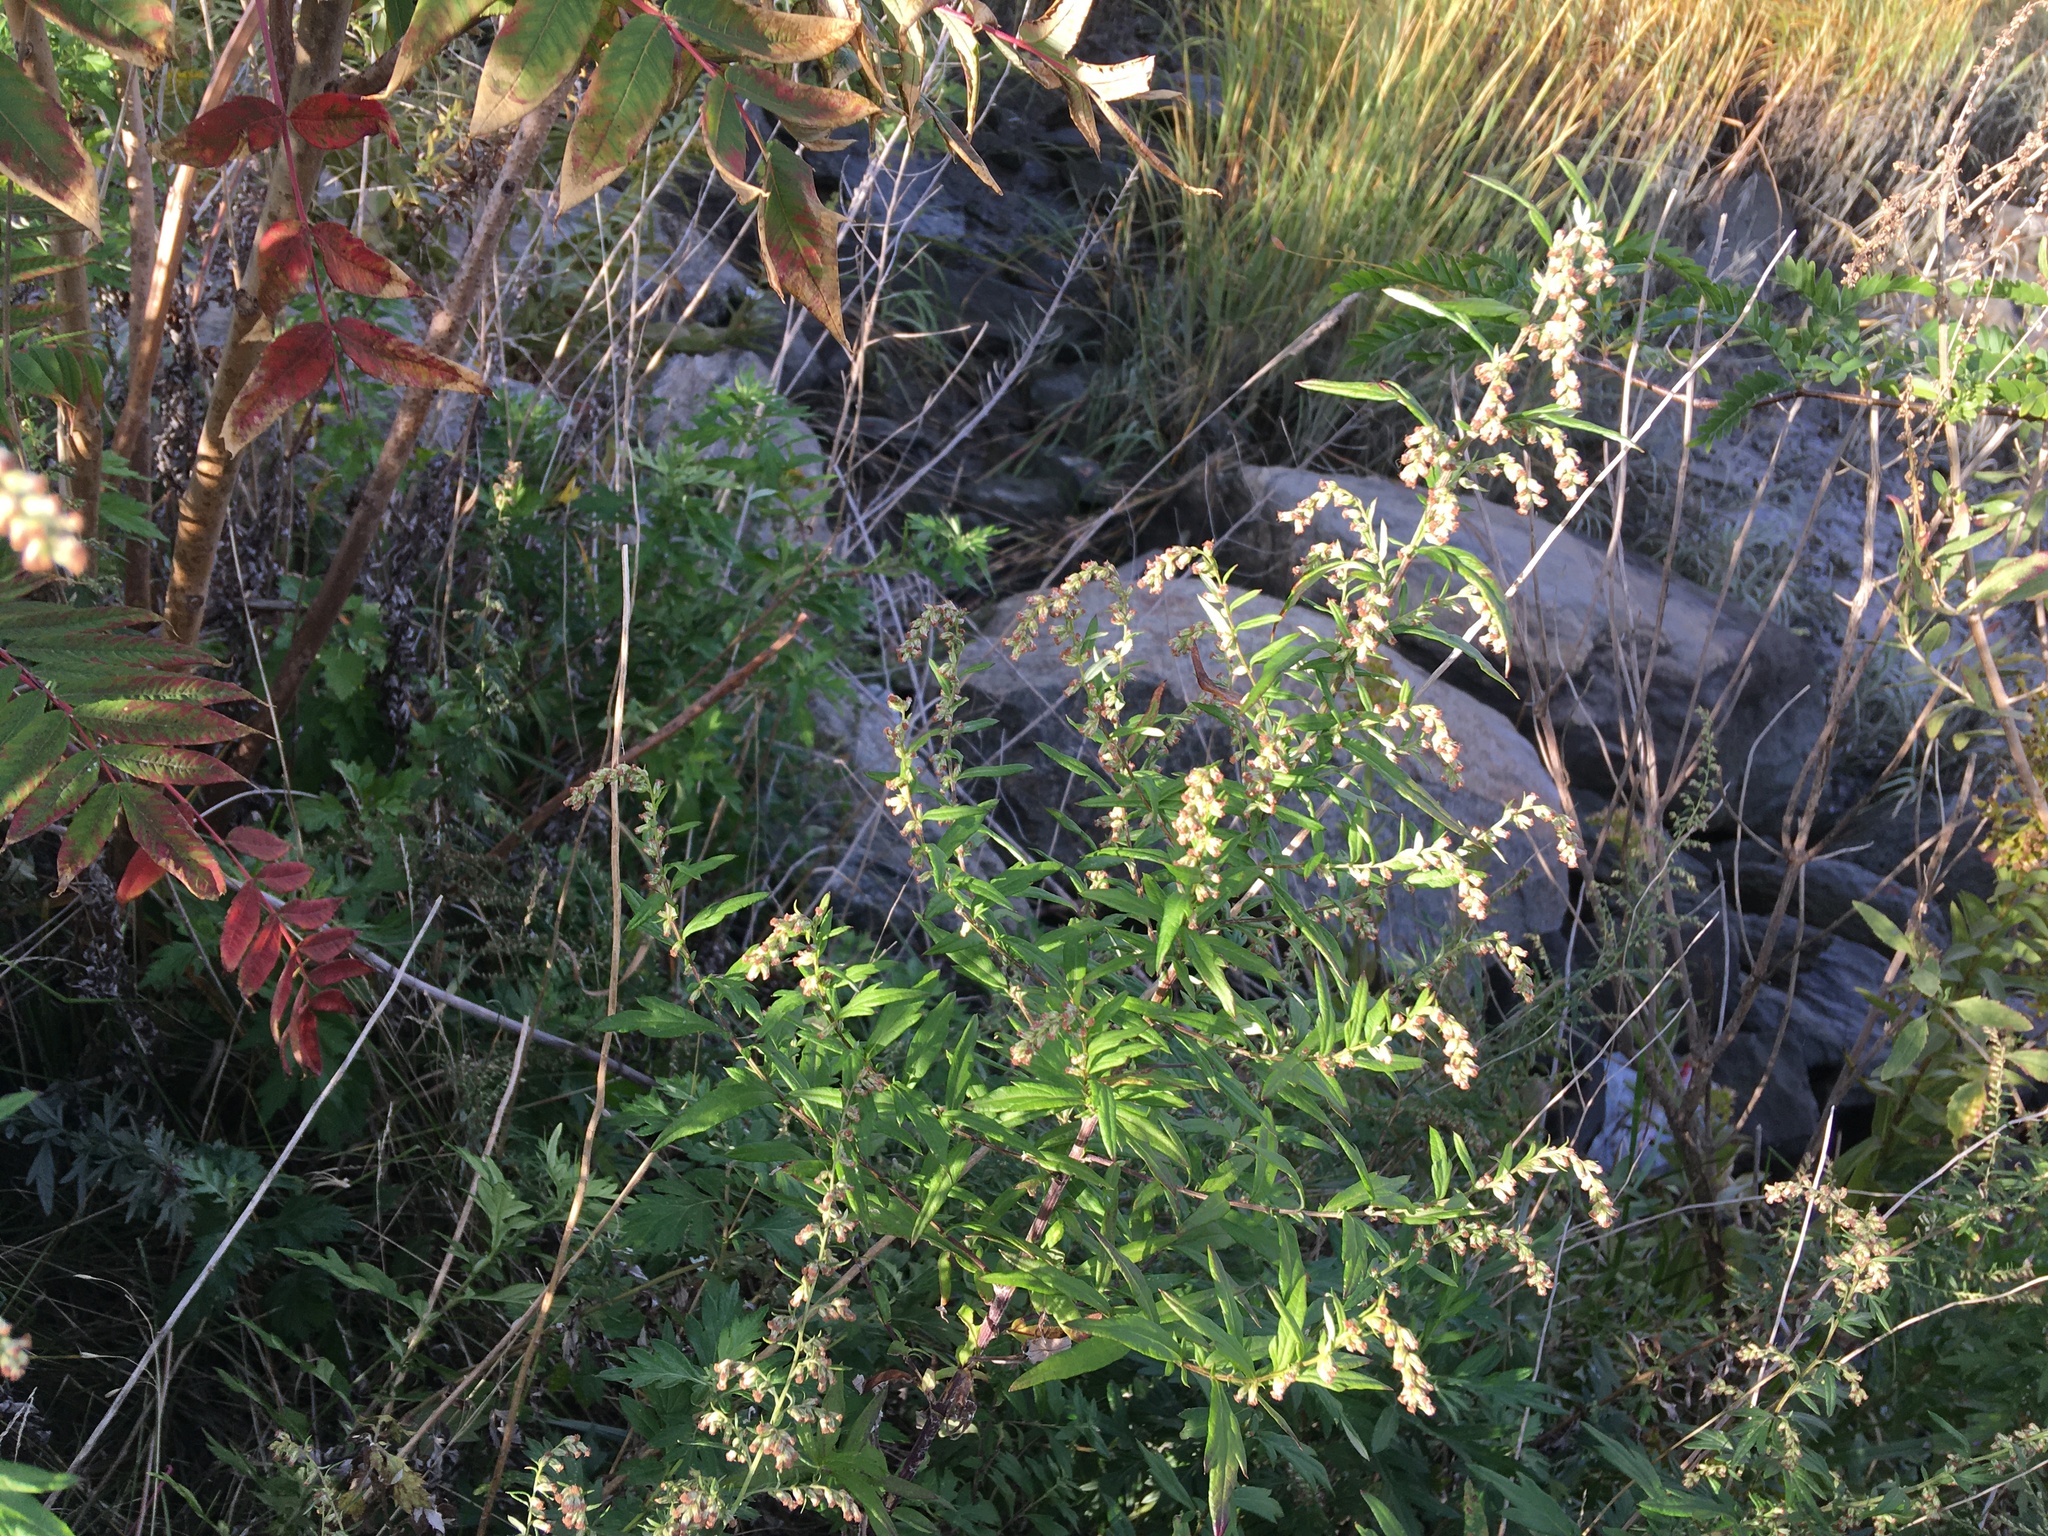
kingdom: Plantae
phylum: Tracheophyta
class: Magnoliopsida
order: Asterales
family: Asteraceae
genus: Artemisia
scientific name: Artemisia vulgaris
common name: Mugwort
